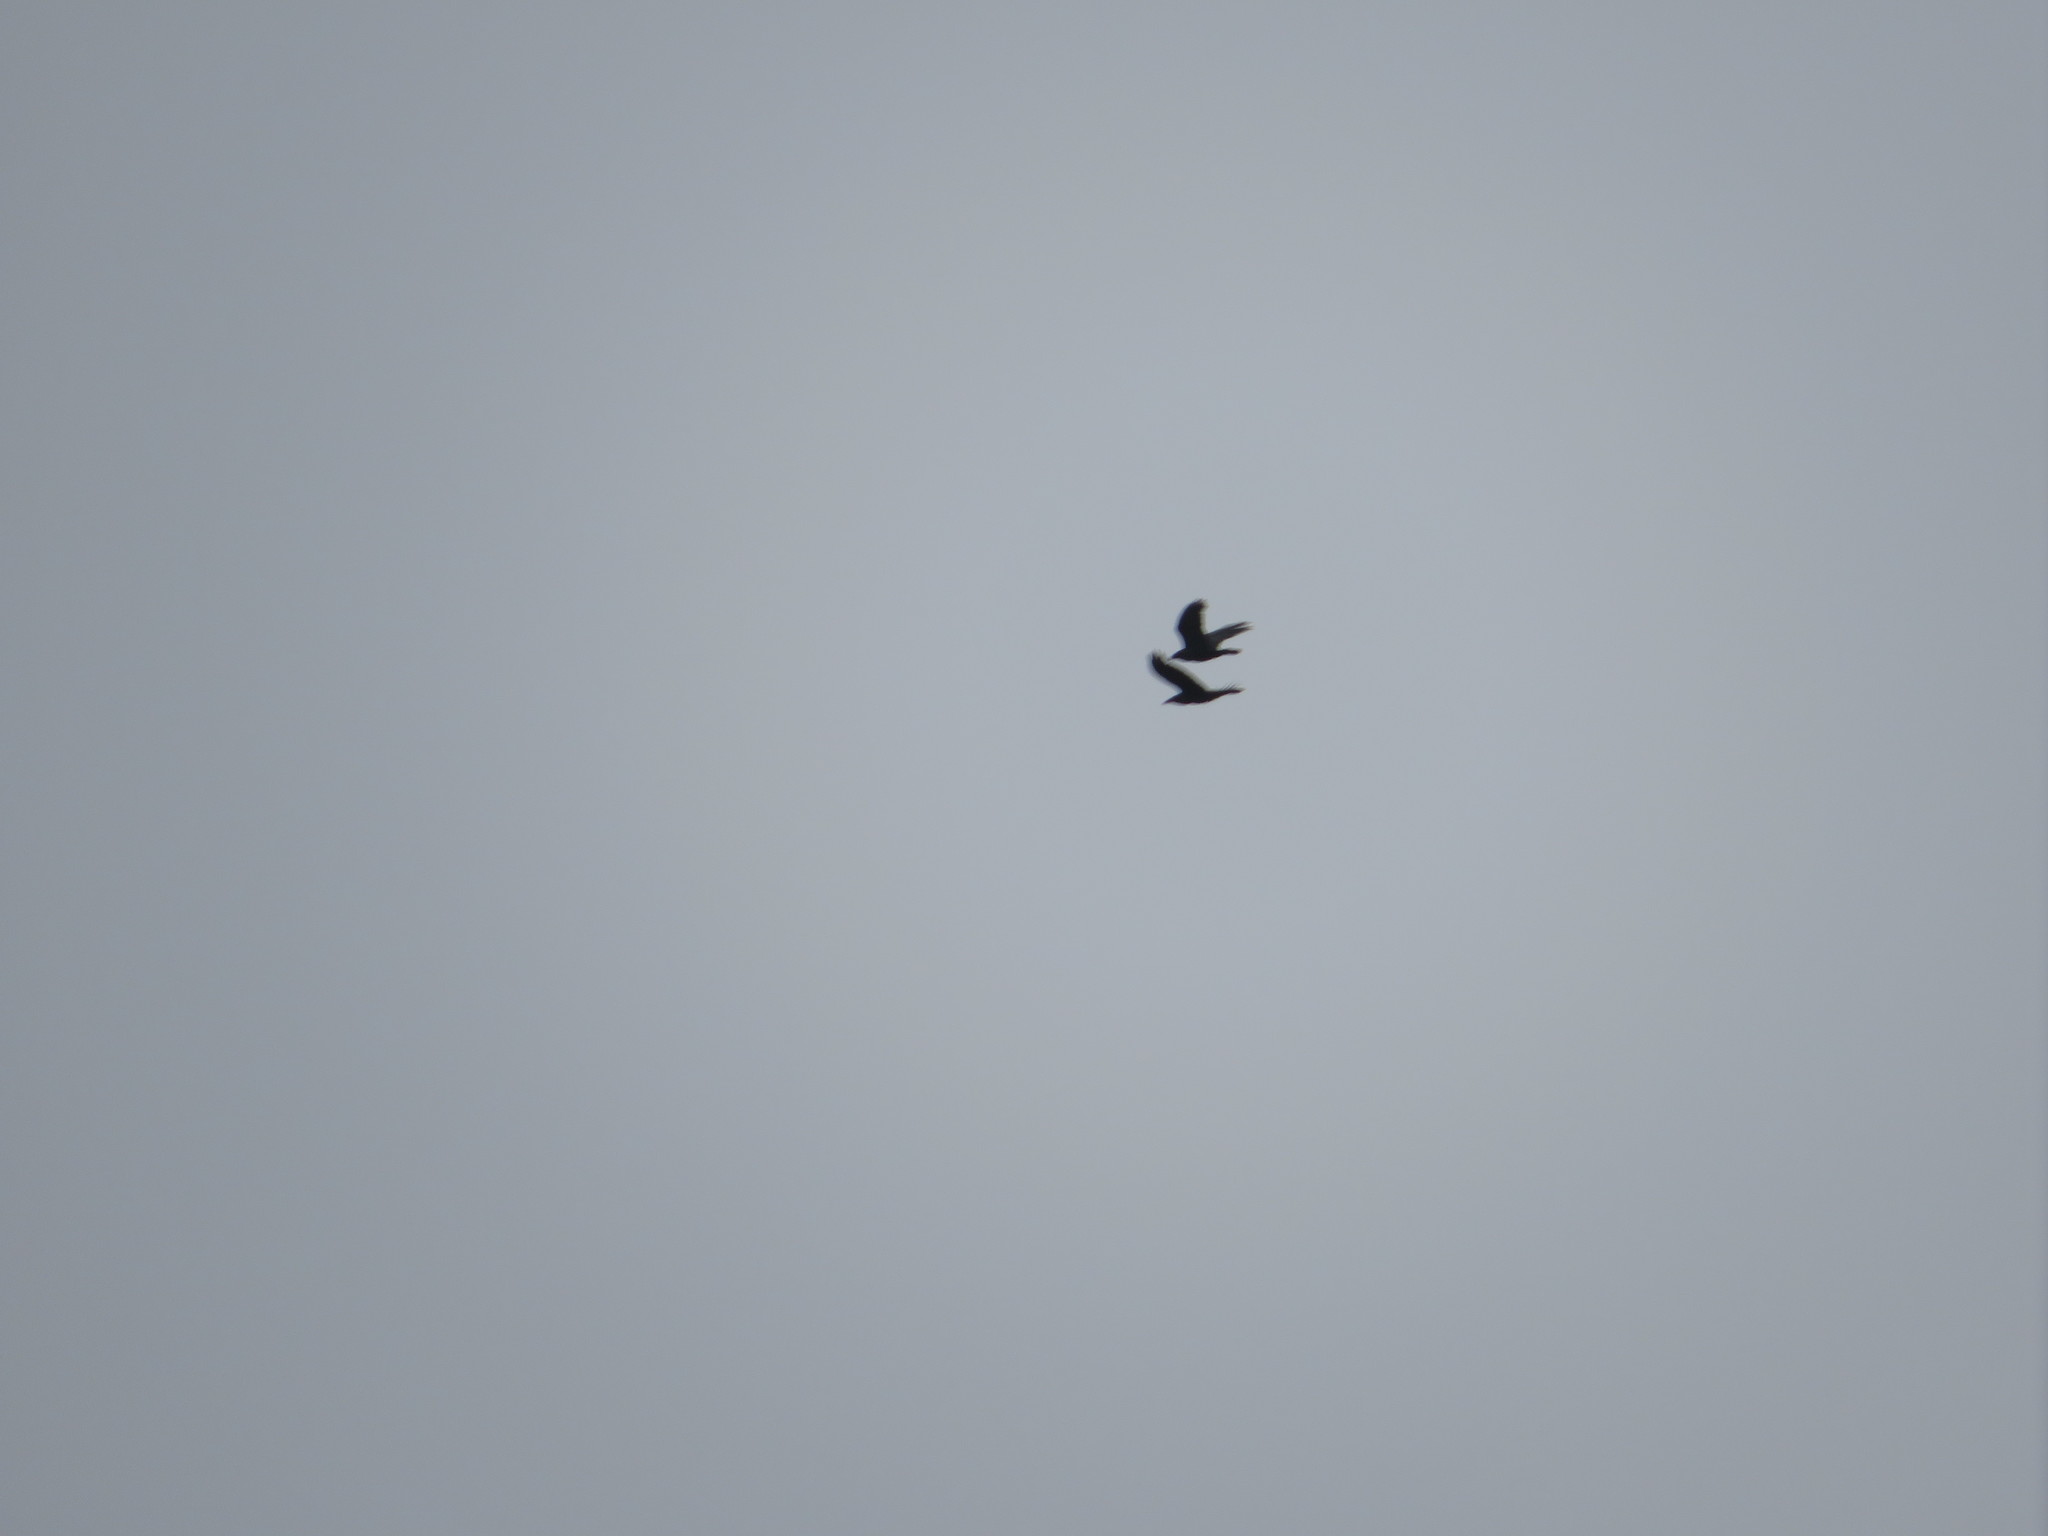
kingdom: Animalia
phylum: Chordata
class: Aves
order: Passeriformes
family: Corvidae
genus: Corvus
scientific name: Corvus corax
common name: Common raven
